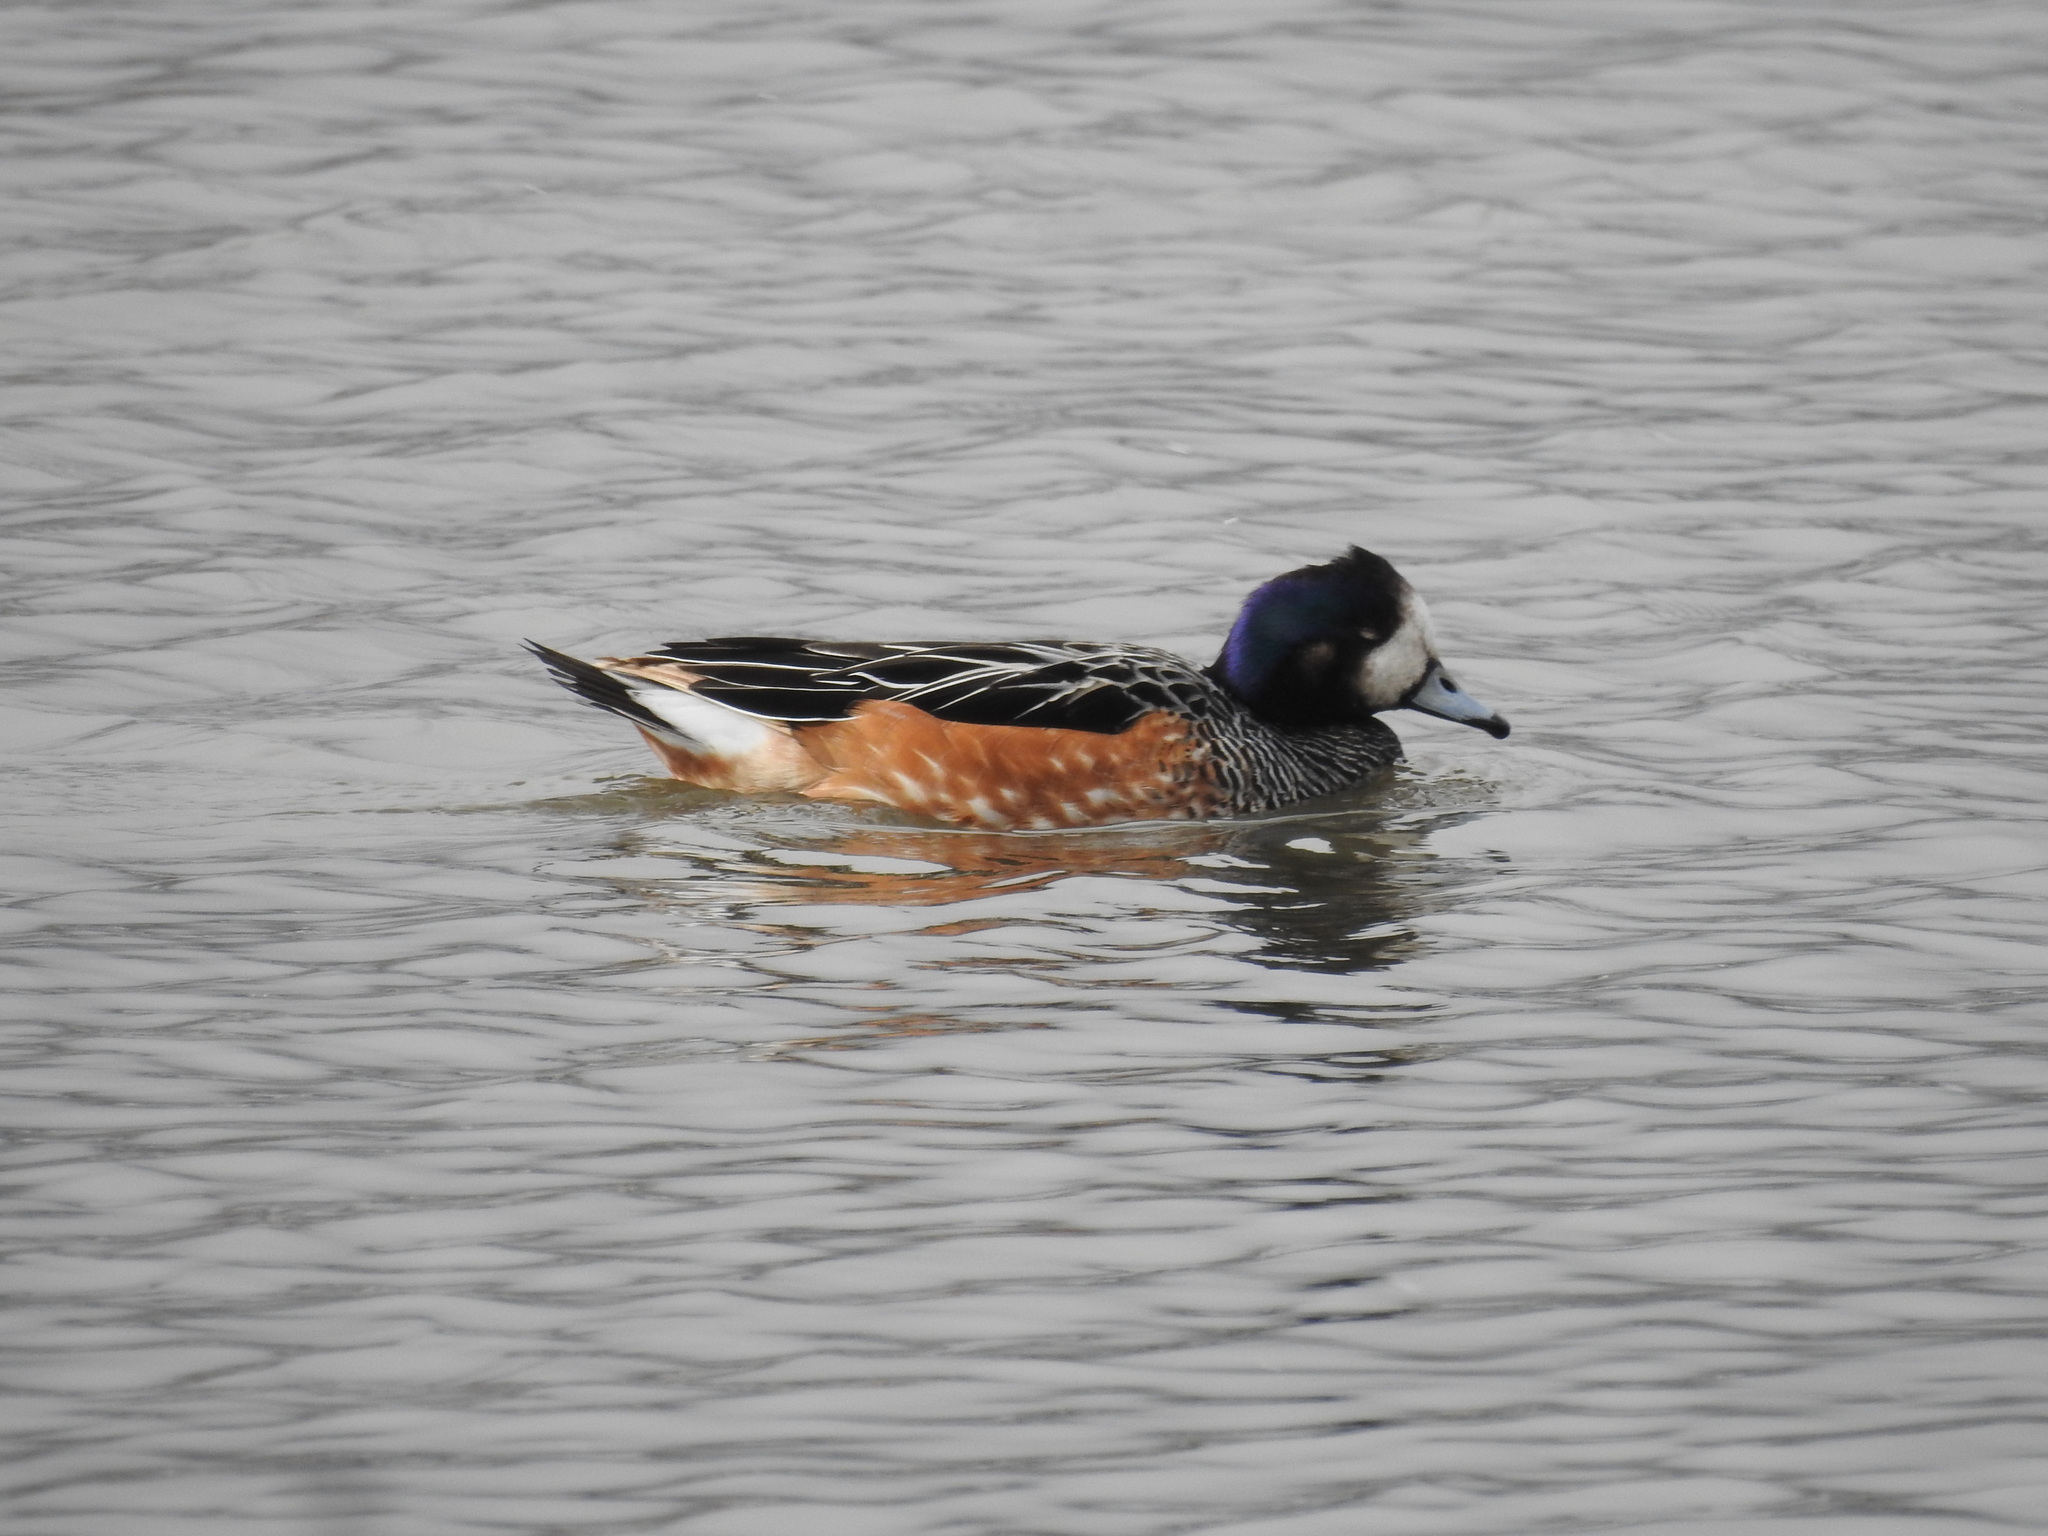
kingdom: Animalia
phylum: Chordata
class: Aves
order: Anseriformes
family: Anatidae
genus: Mareca
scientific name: Mareca sibilatrix
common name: Chiloe wigeon
